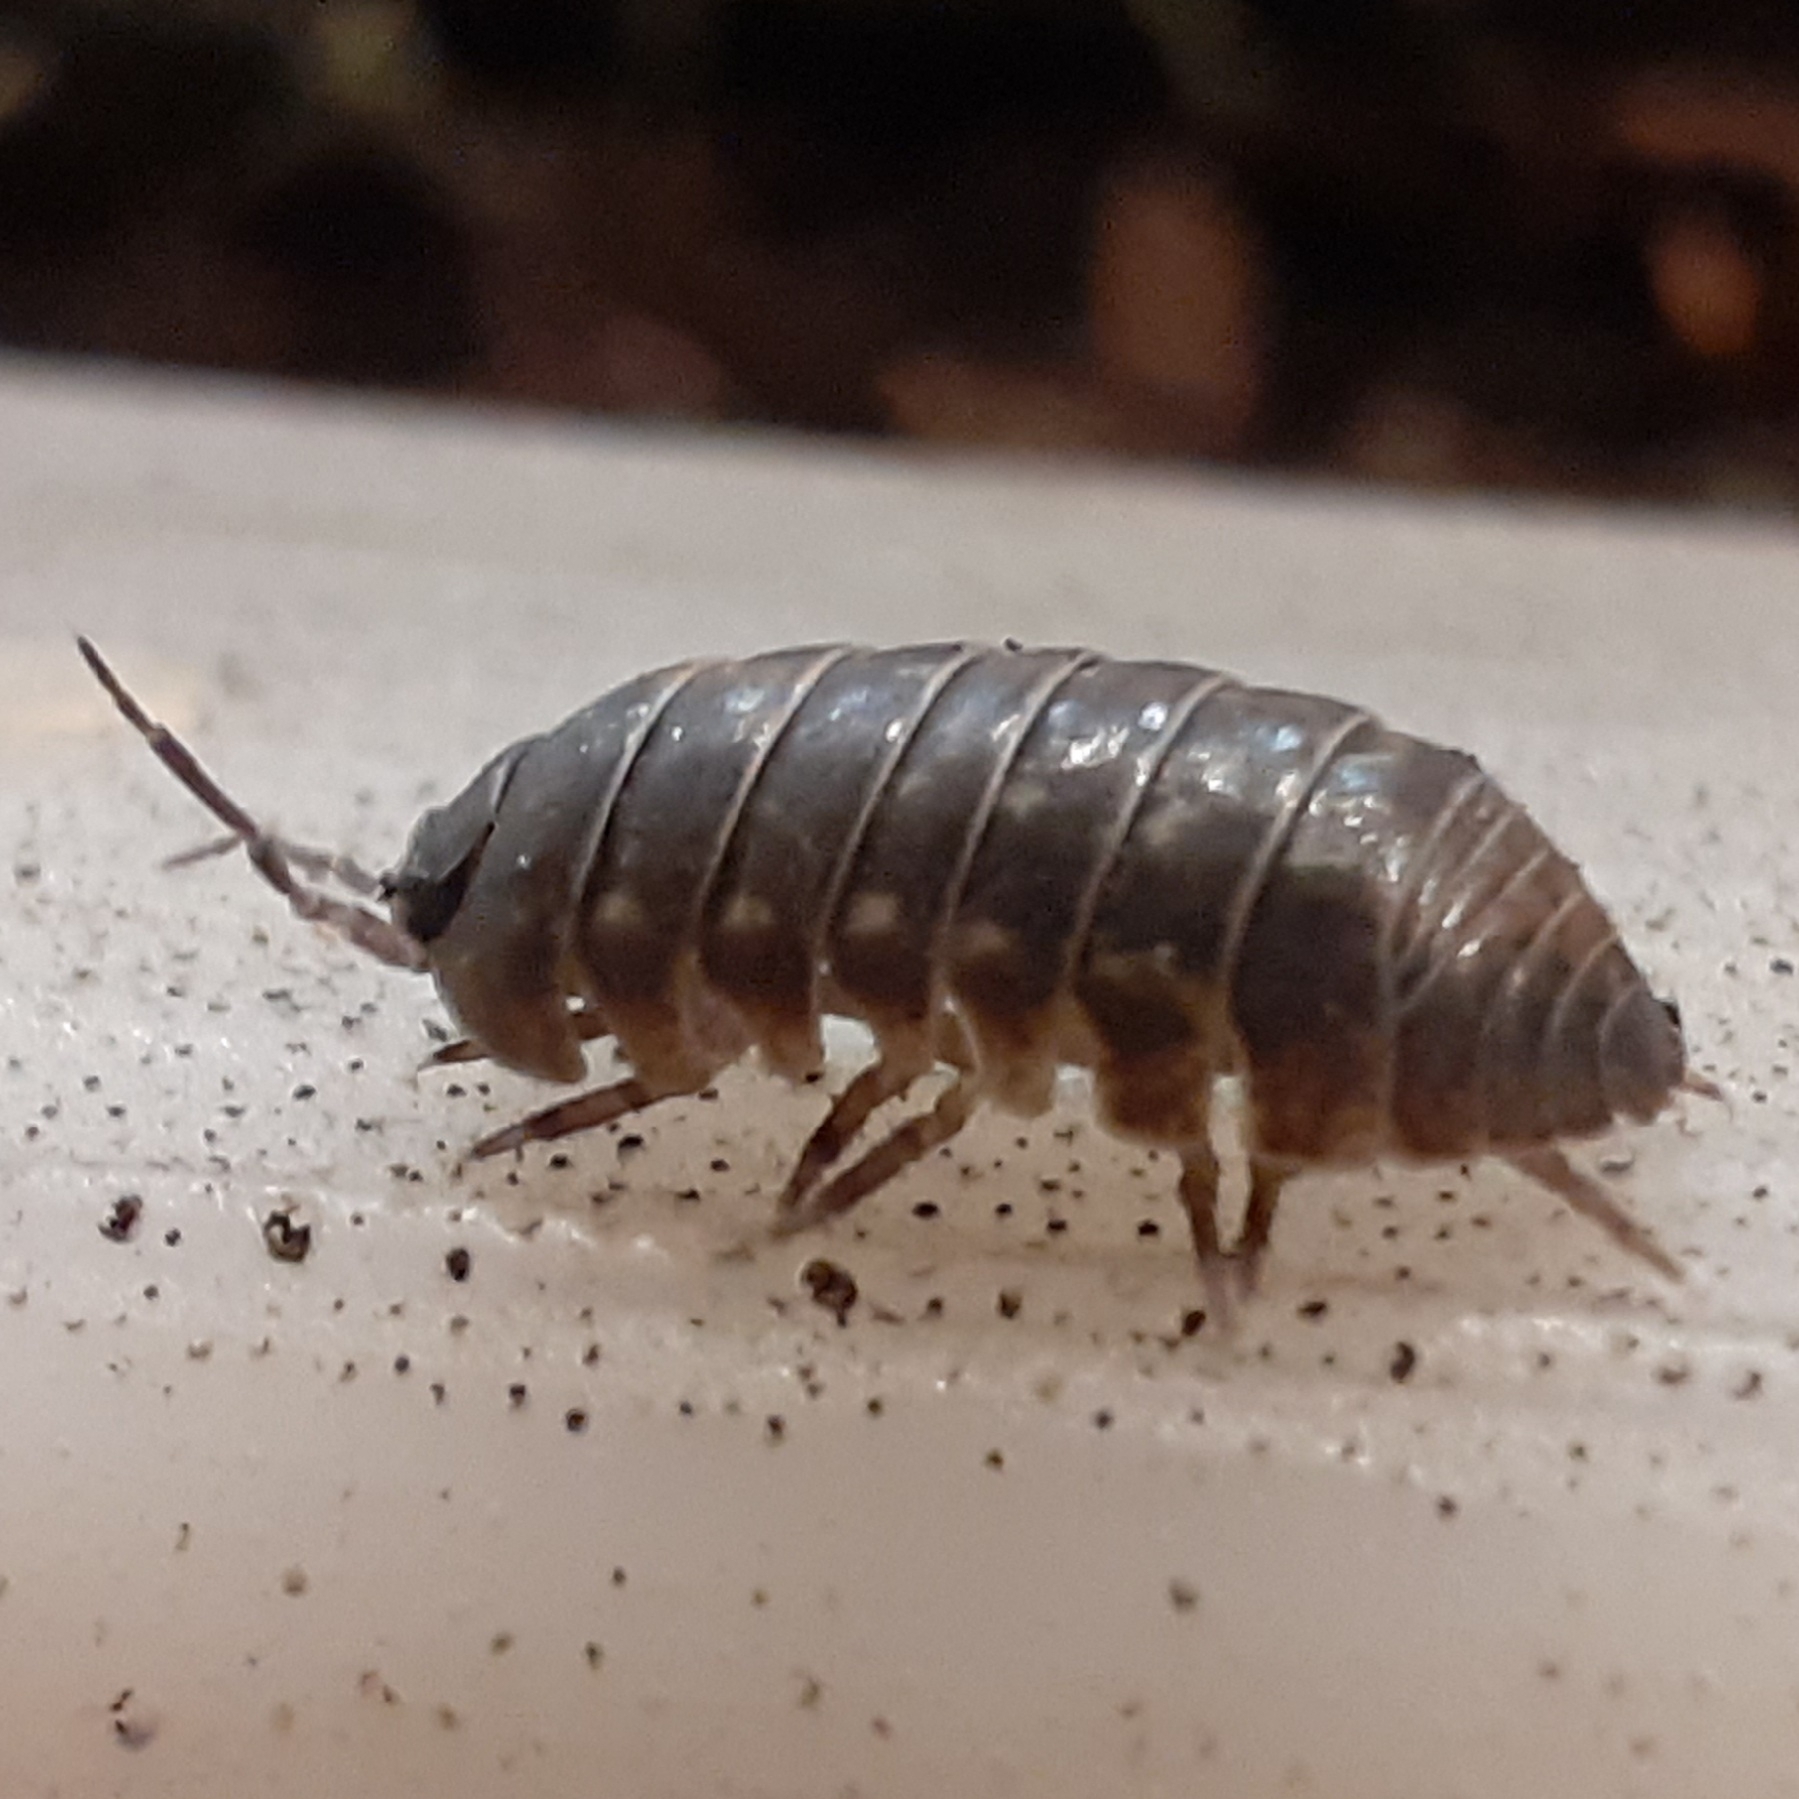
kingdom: Animalia
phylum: Arthropoda
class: Malacostraca
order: Isopoda
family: Armadillidiidae
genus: Armadillidium
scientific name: Armadillidium vulgare
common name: Common pill woodlouse
